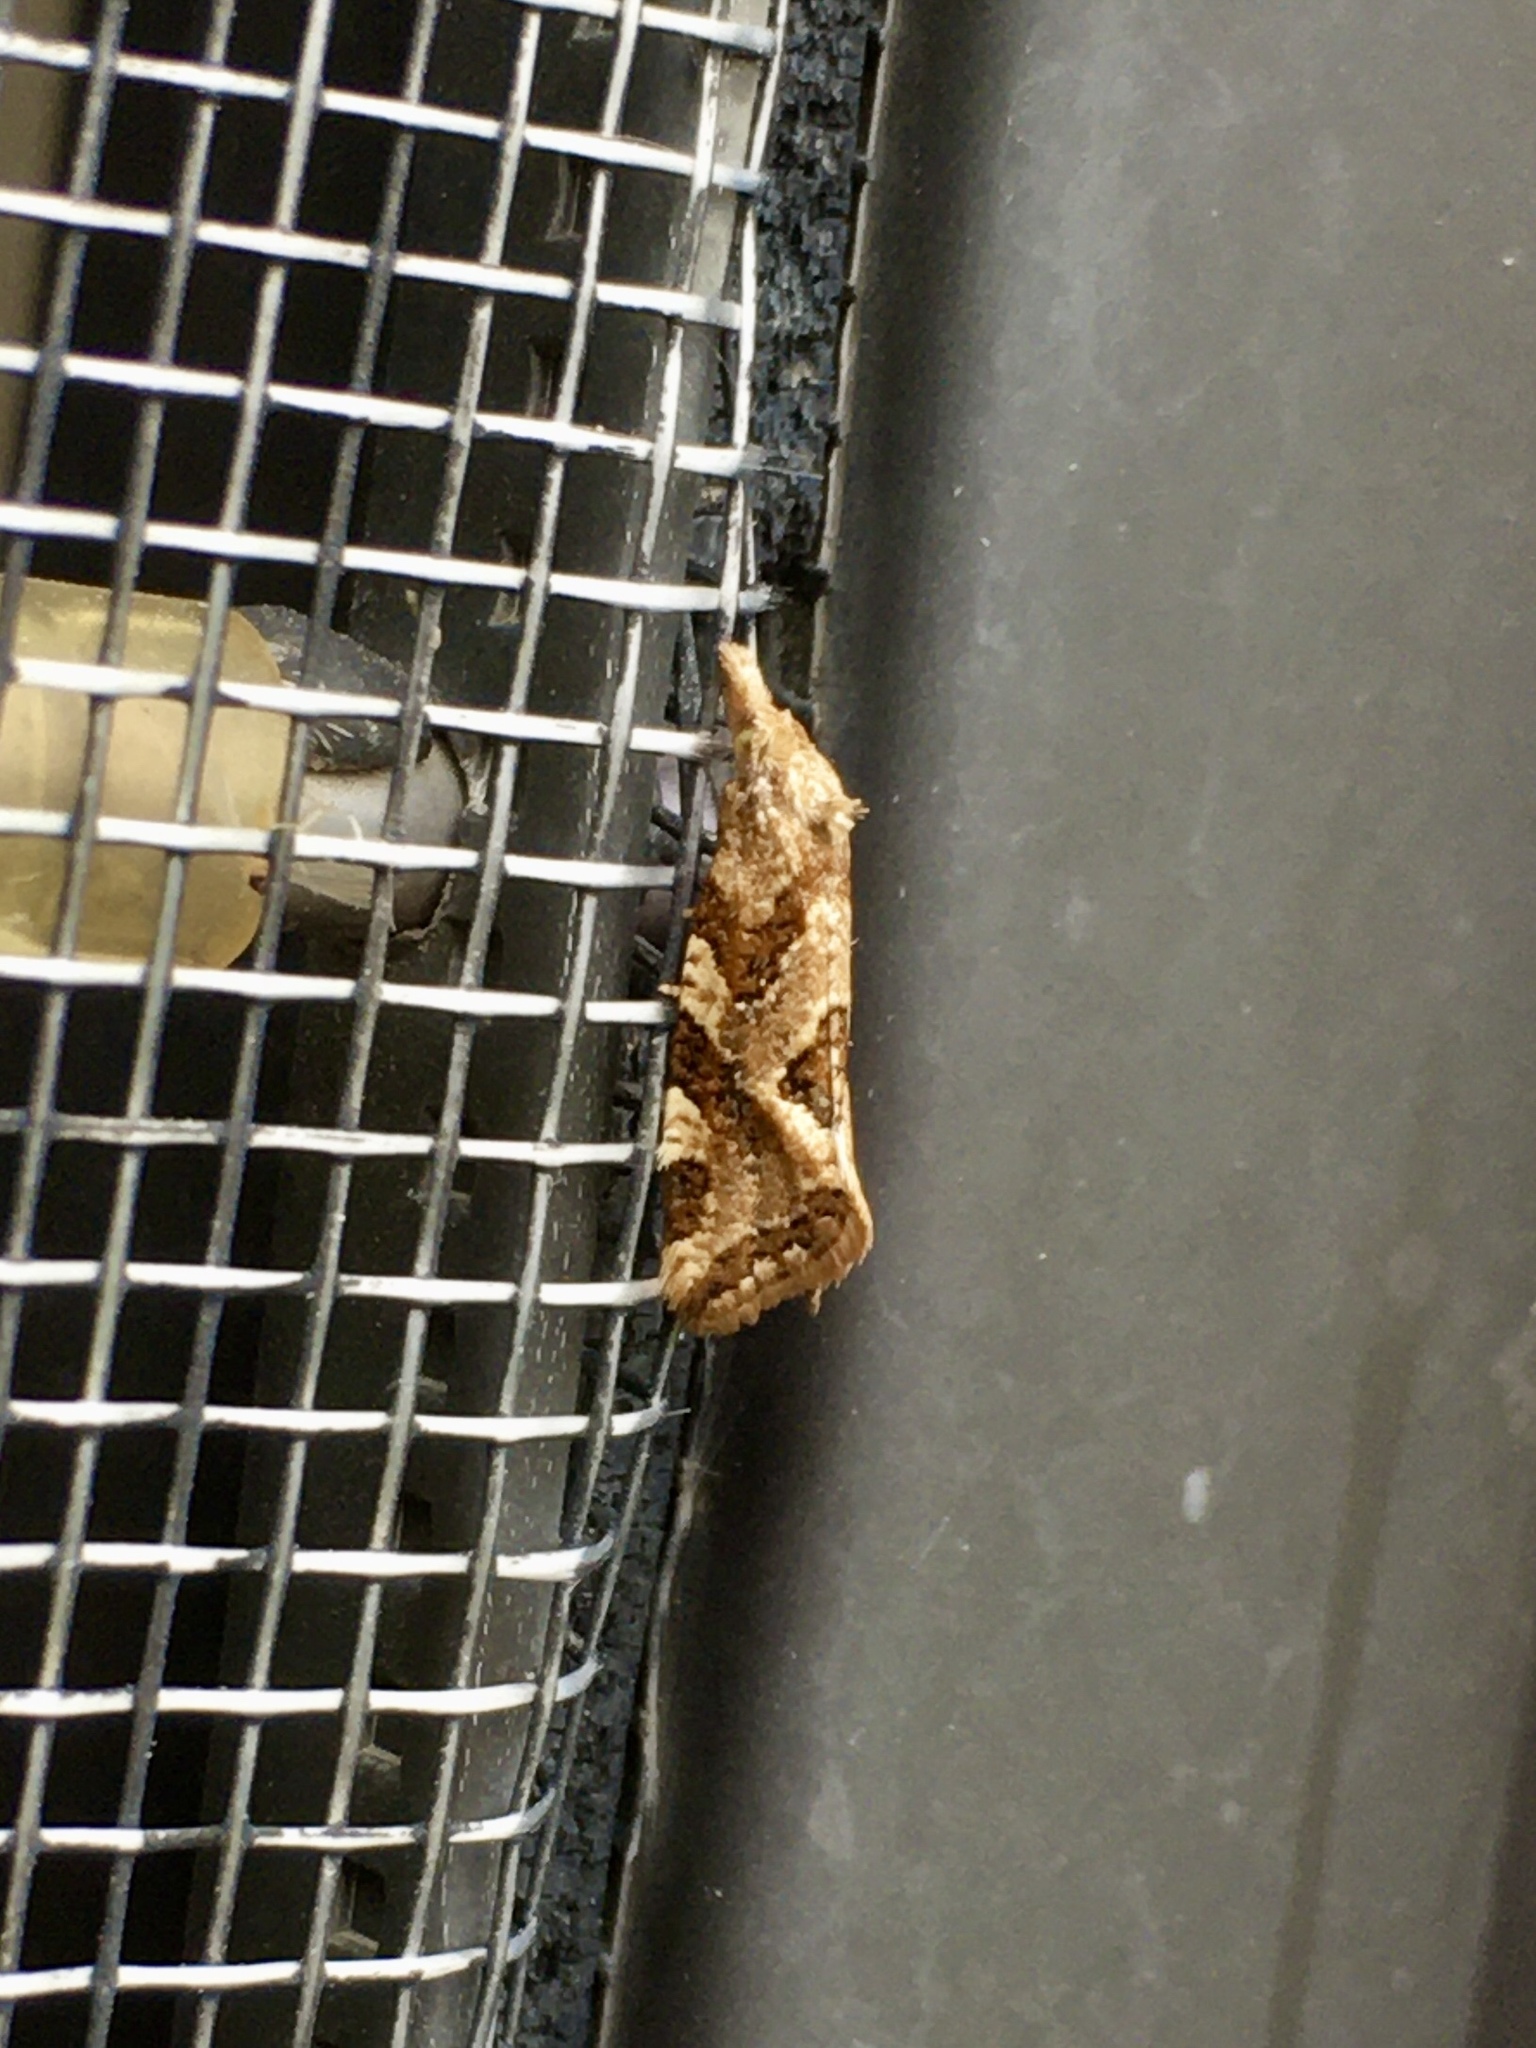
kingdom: Animalia
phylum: Arthropoda
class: Insecta
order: Lepidoptera
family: Tortricidae
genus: Aethes
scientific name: Aethes sexdentata
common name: Six-toothed aethes
